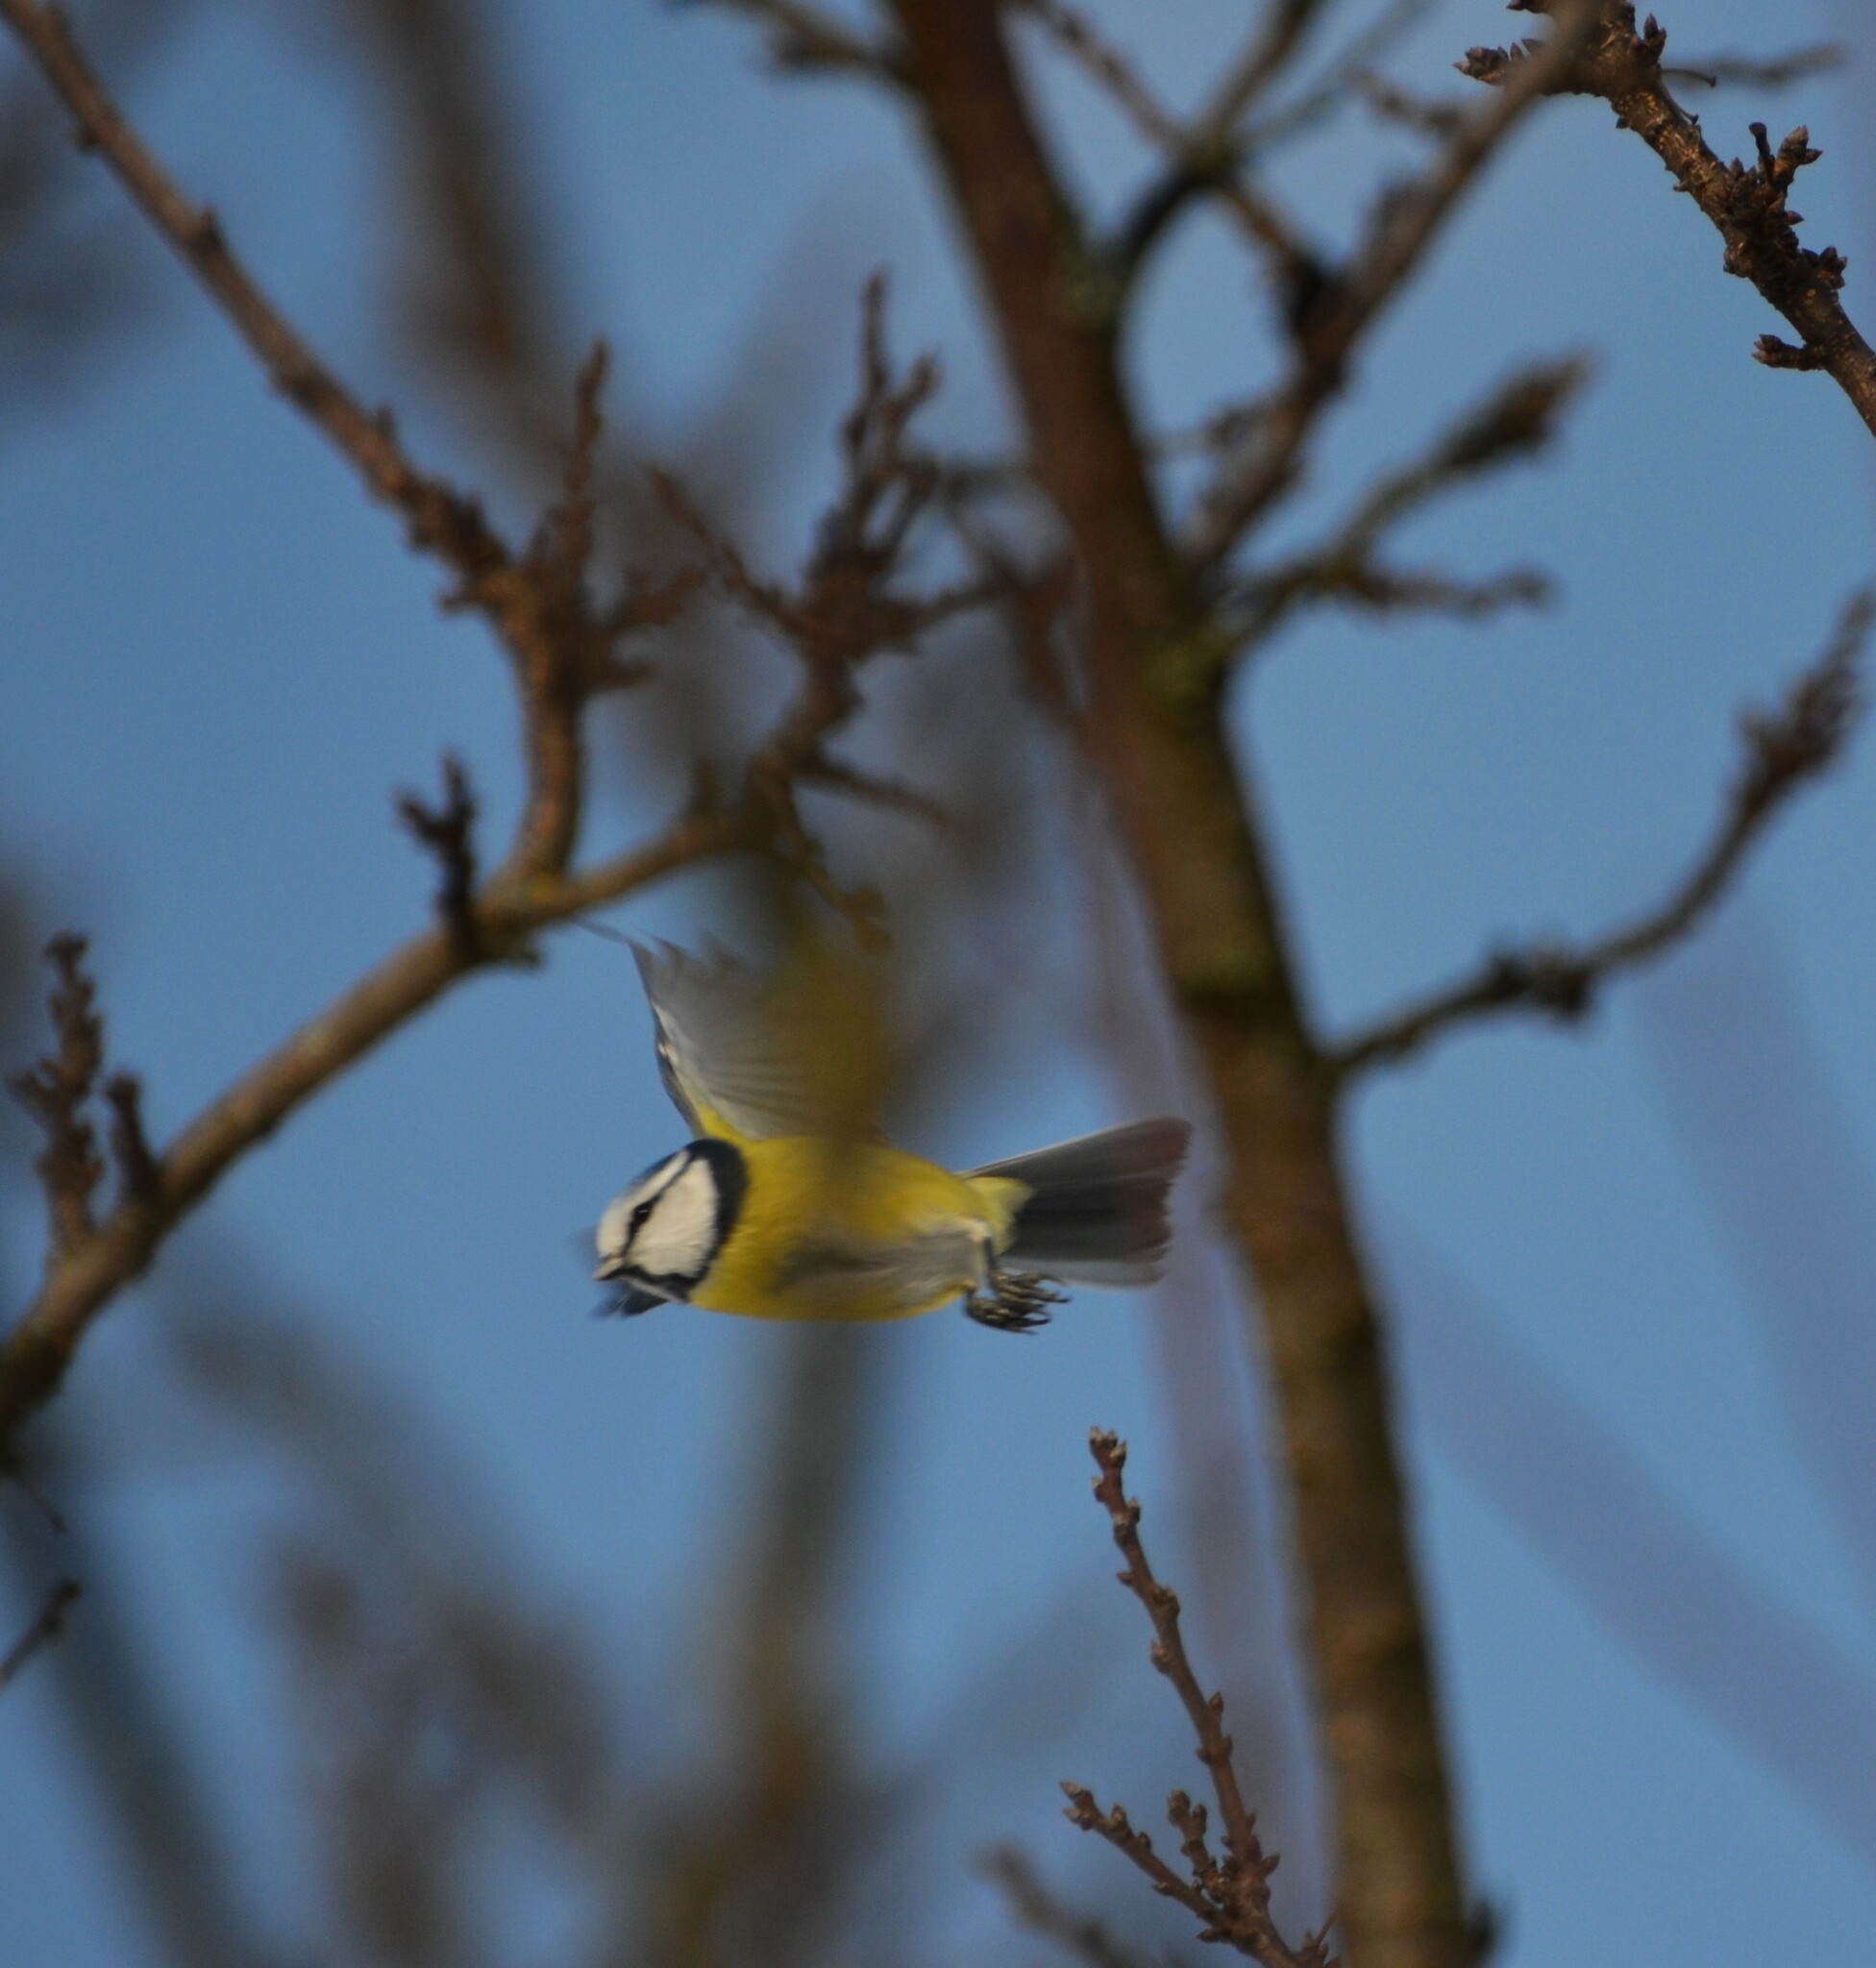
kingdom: Animalia
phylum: Chordata
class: Aves
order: Passeriformes
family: Paridae
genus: Cyanistes
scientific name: Cyanistes caeruleus
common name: Eurasian blue tit
